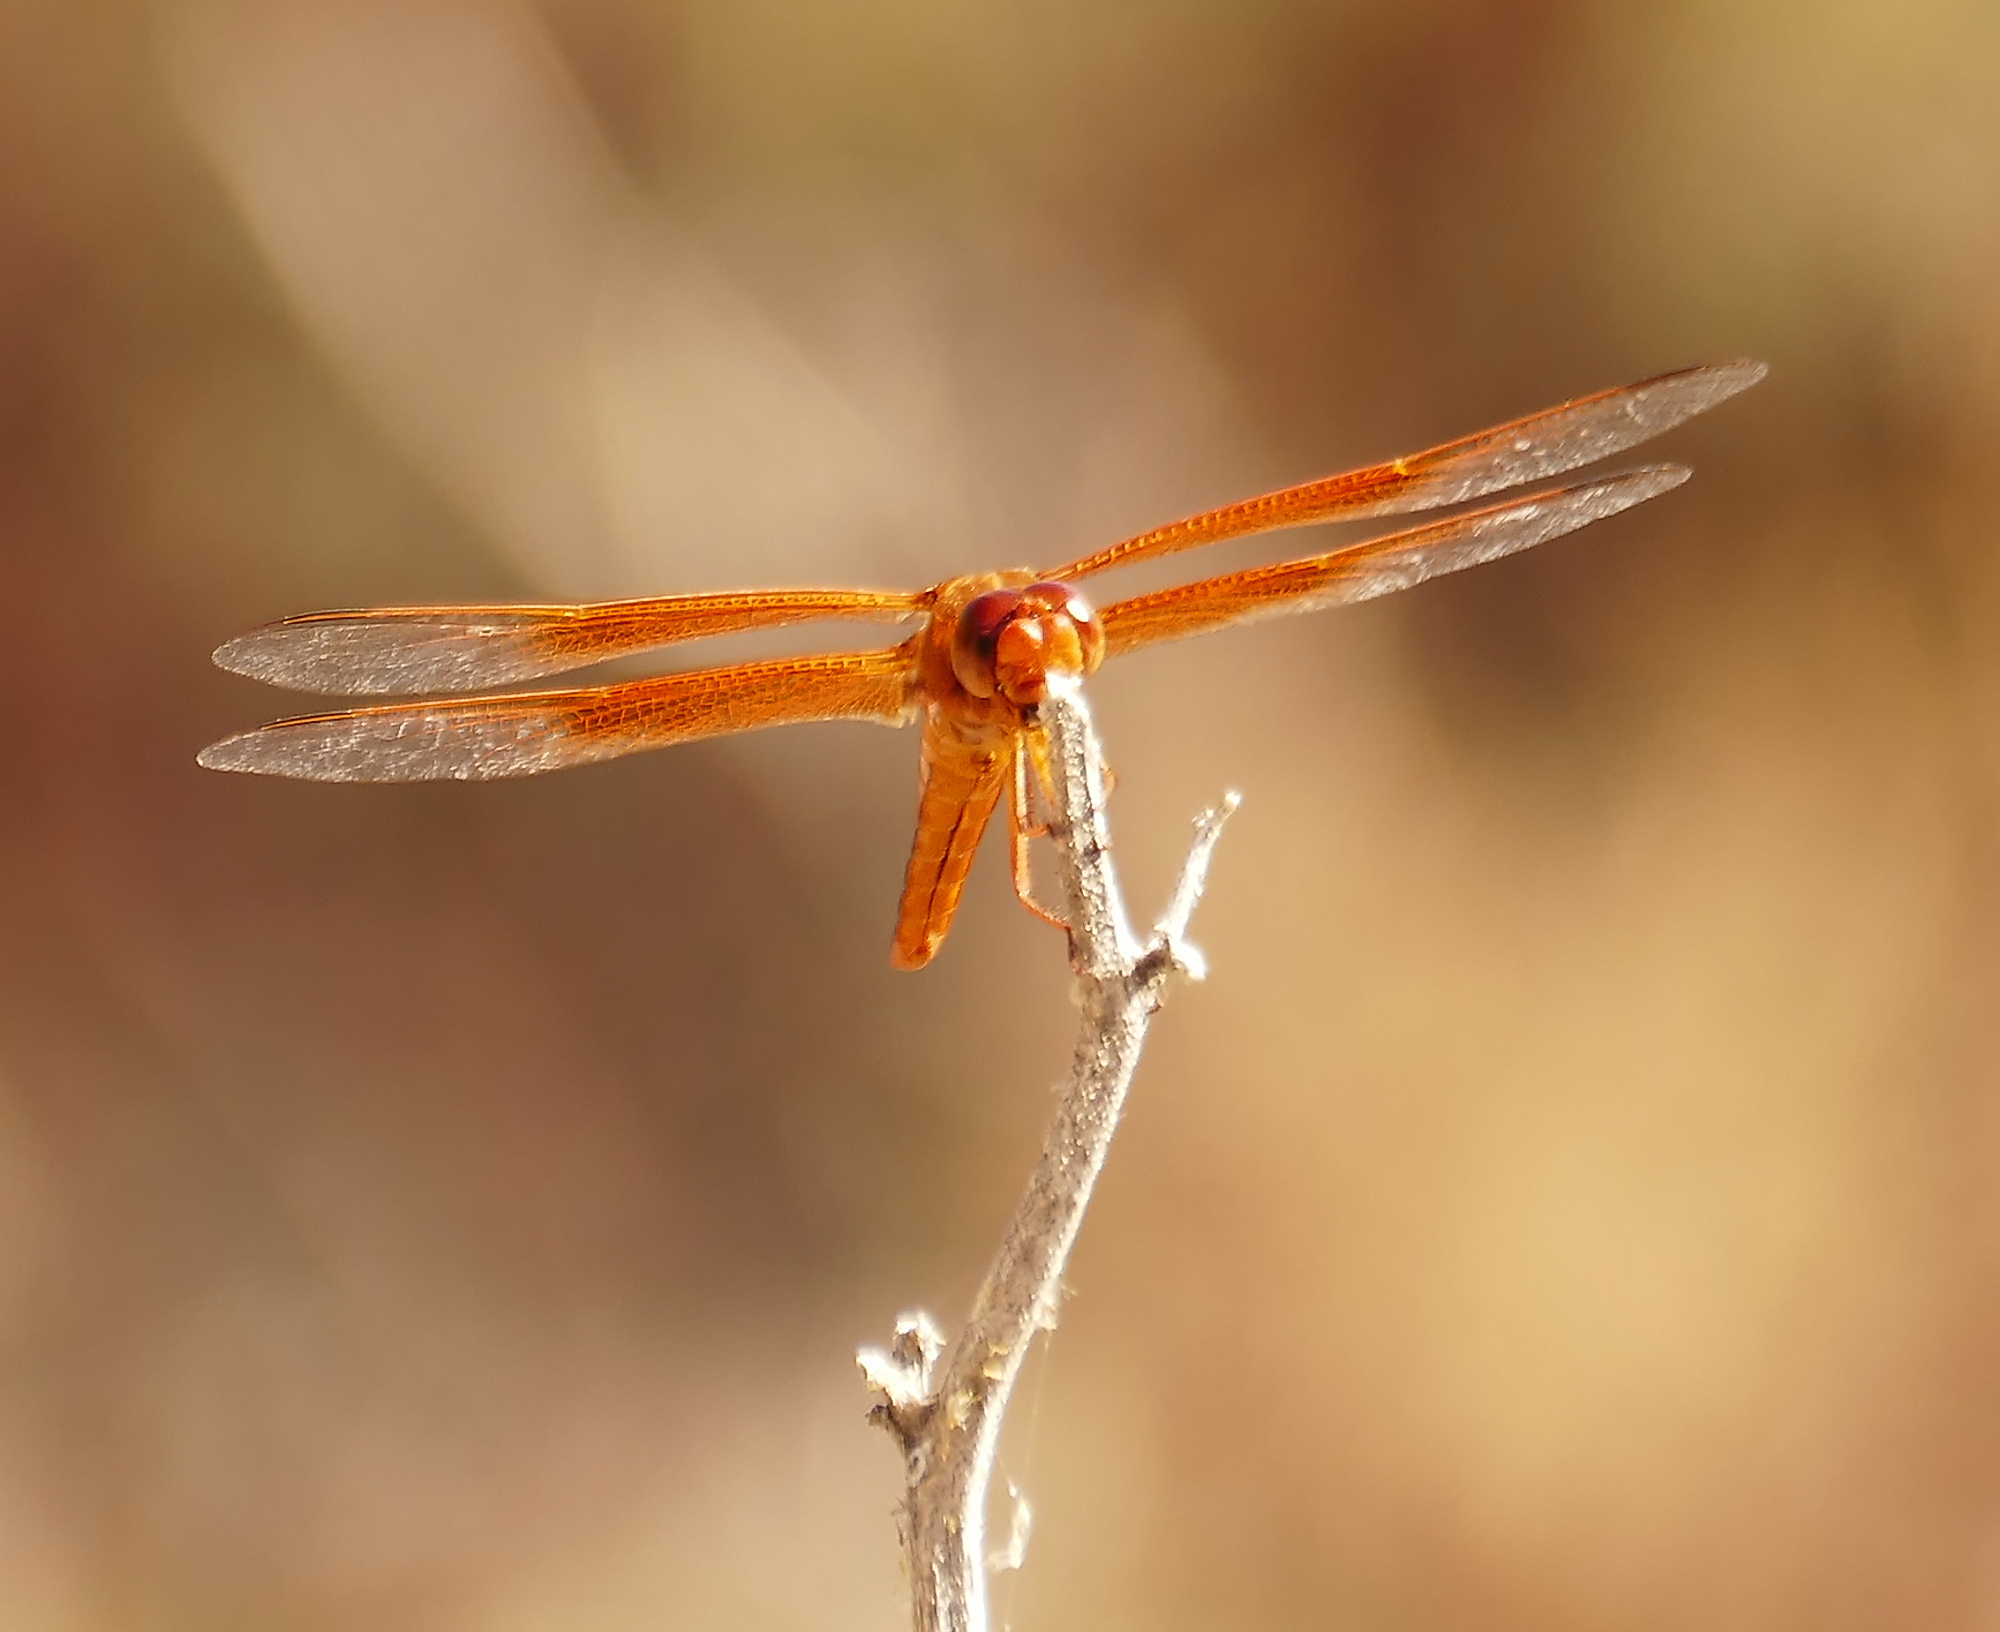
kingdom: Animalia
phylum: Arthropoda
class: Insecta
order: Odonata
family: Libellulidae
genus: Libellula
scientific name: Libellula saturata
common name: Flame skimmer
